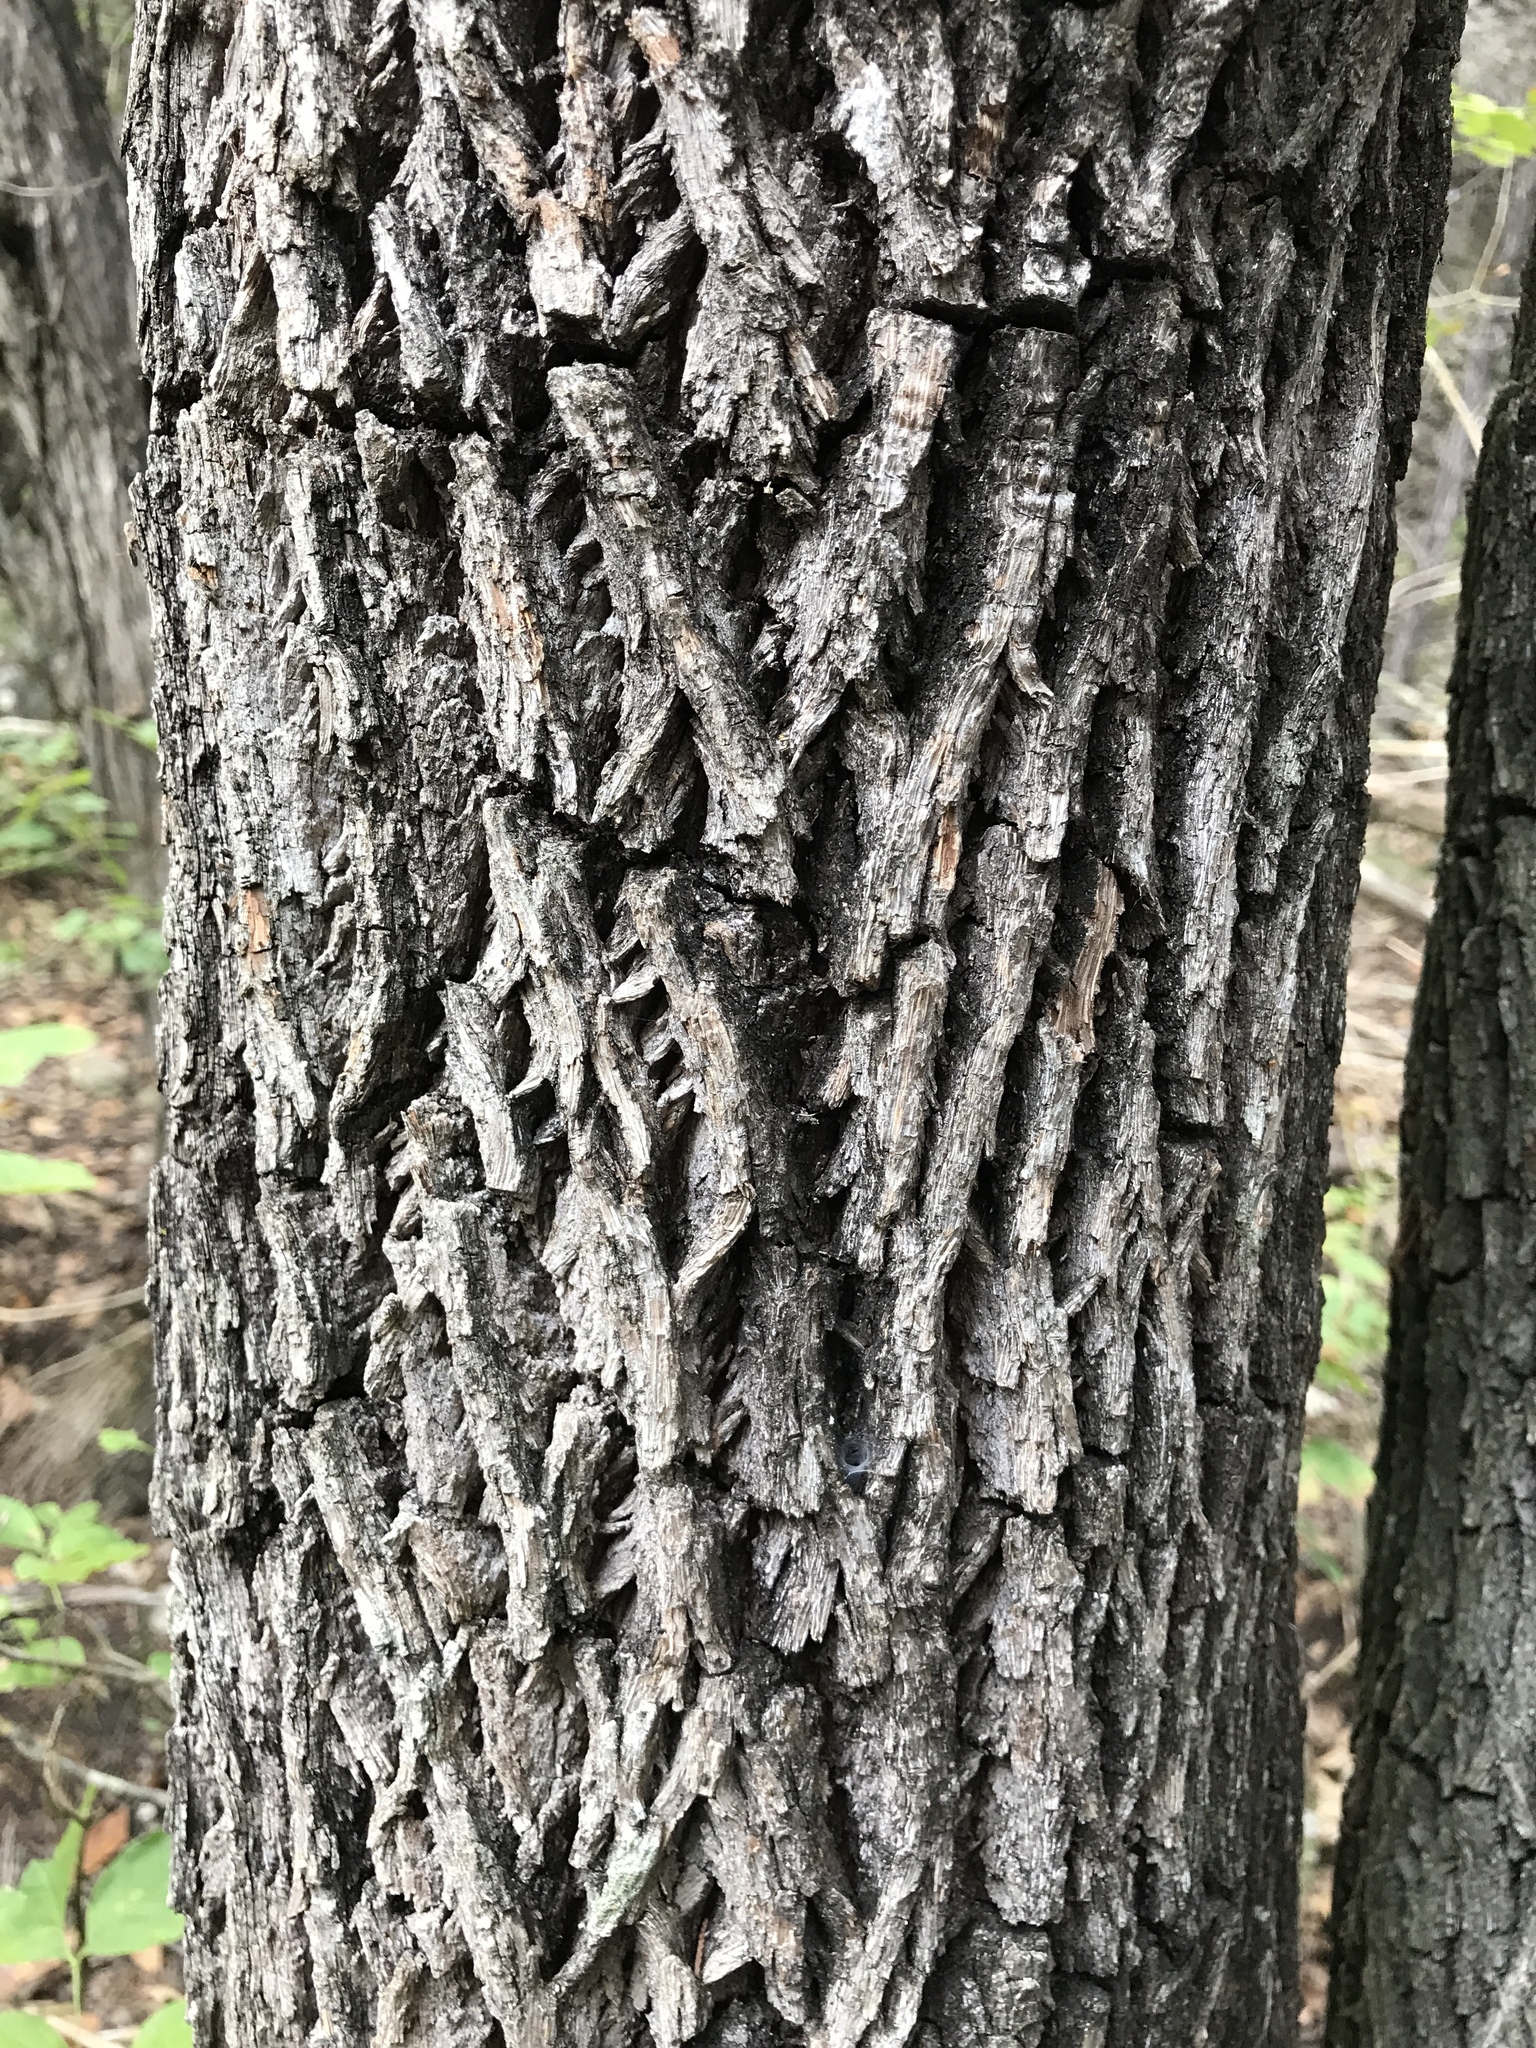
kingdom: Plantae
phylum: Tracheophyta
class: Magnoliopsida
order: Ericales
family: Sapotaceae
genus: Sideroxylon
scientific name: Sideroxylon lanuginosum
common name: Chittamwood
